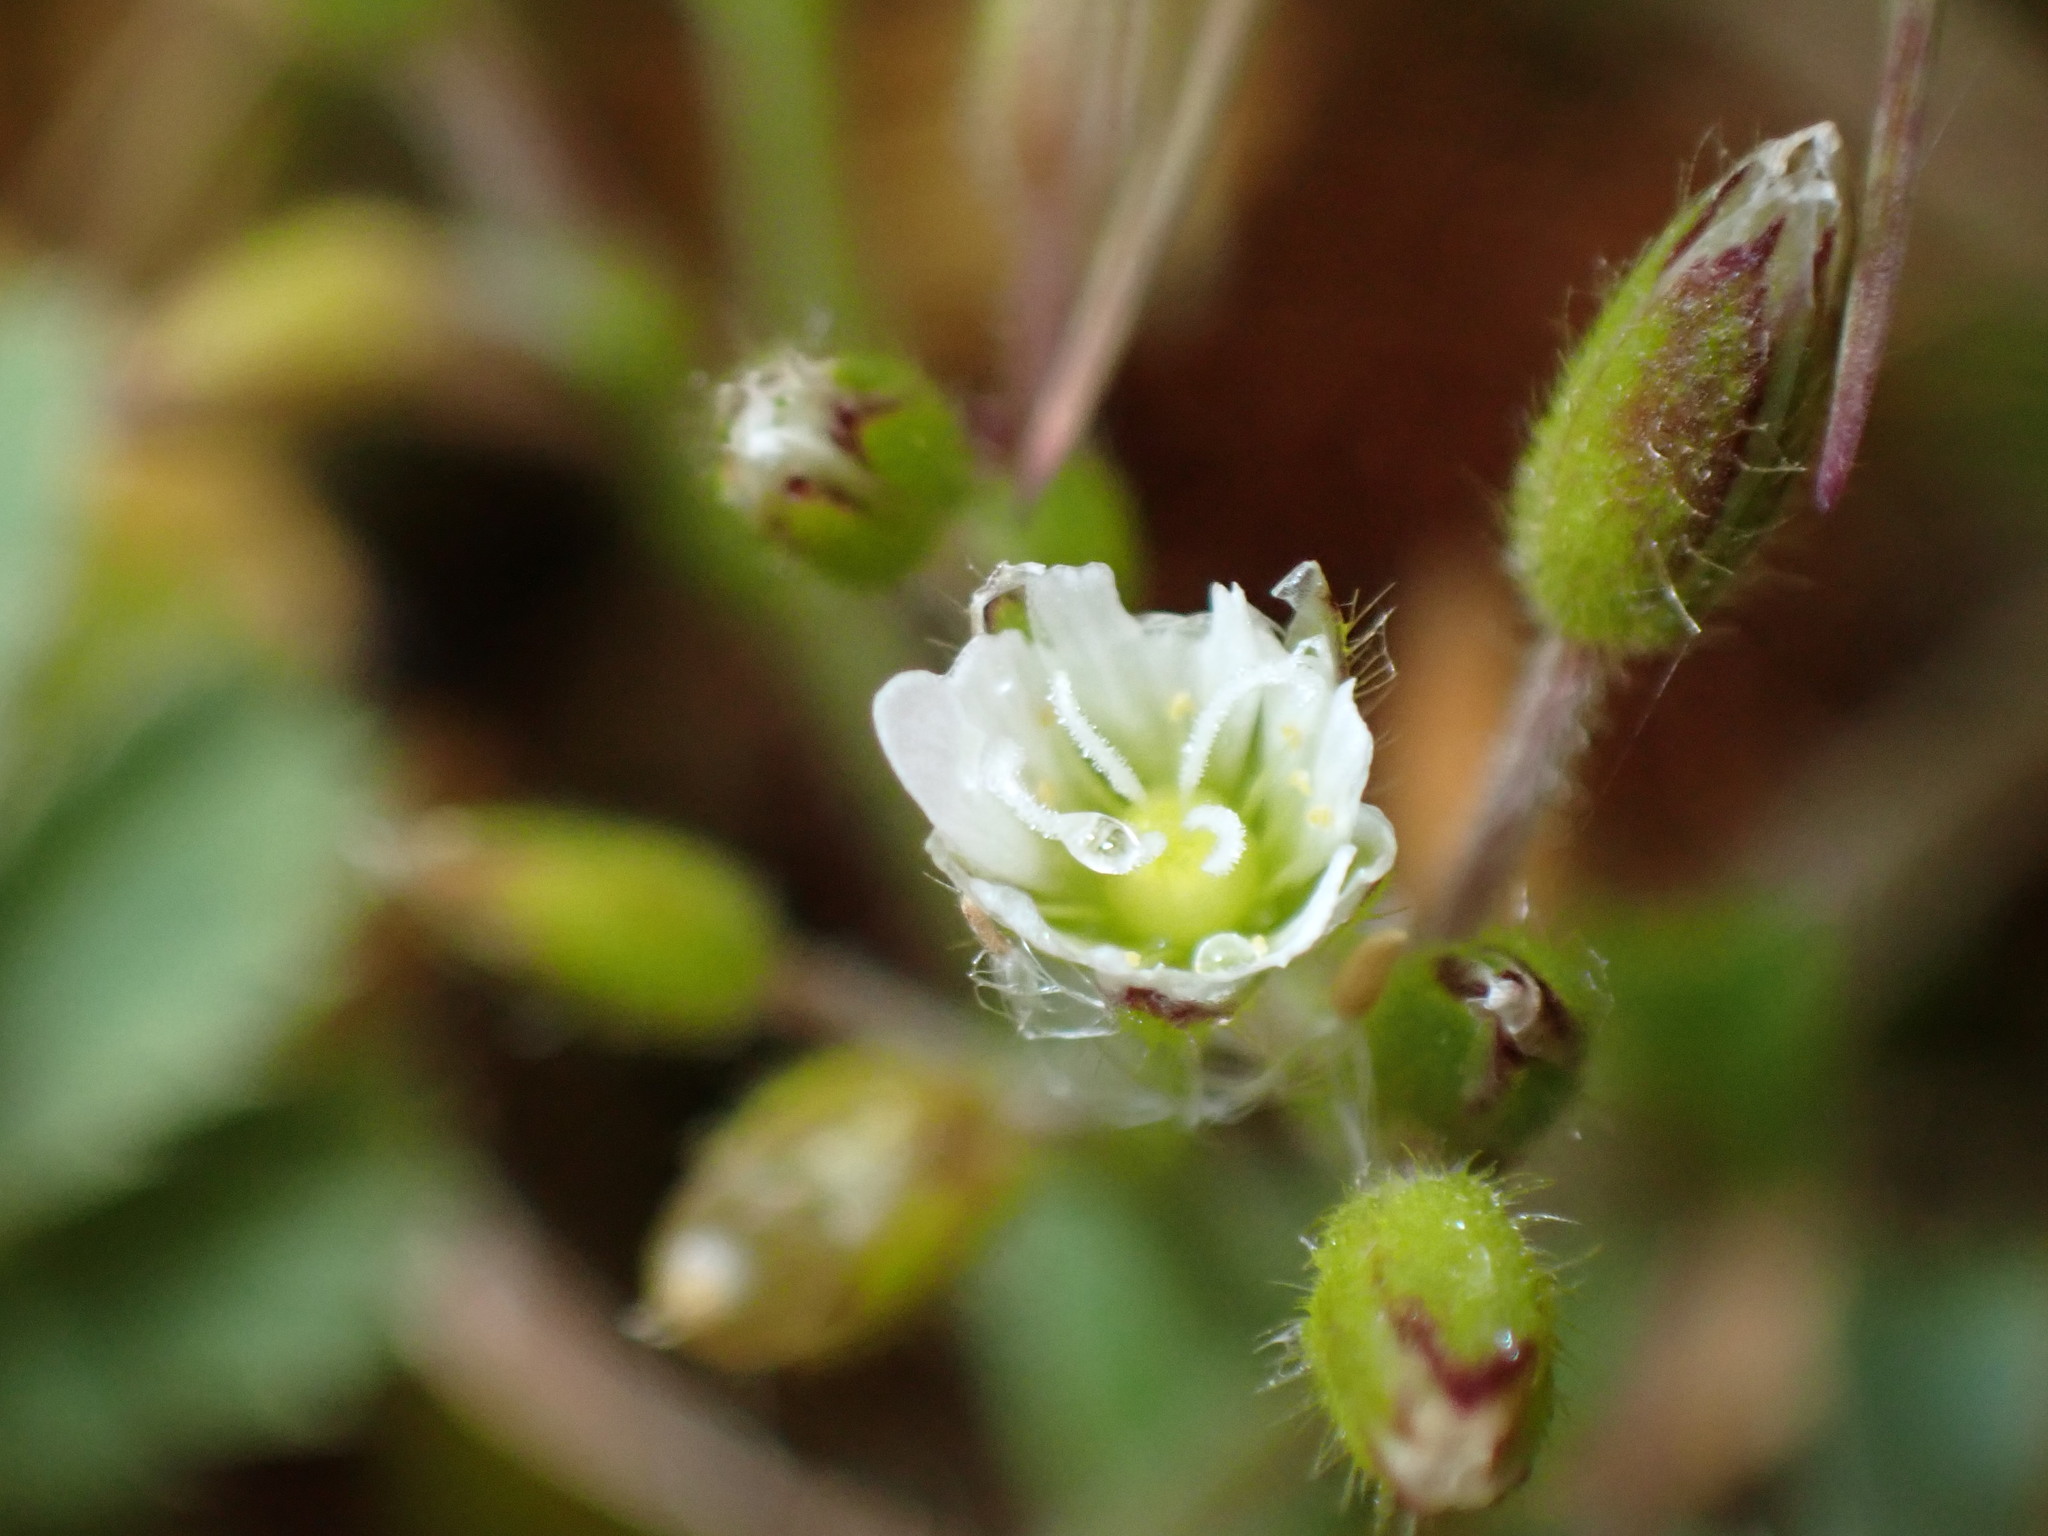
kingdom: Plantae
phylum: Tracheophyta
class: Magnoliopsida
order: Caryophyllales
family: Caryophyllaceae
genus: Cerastium
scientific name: Cerastium fontanum
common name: Common mouse-ear
